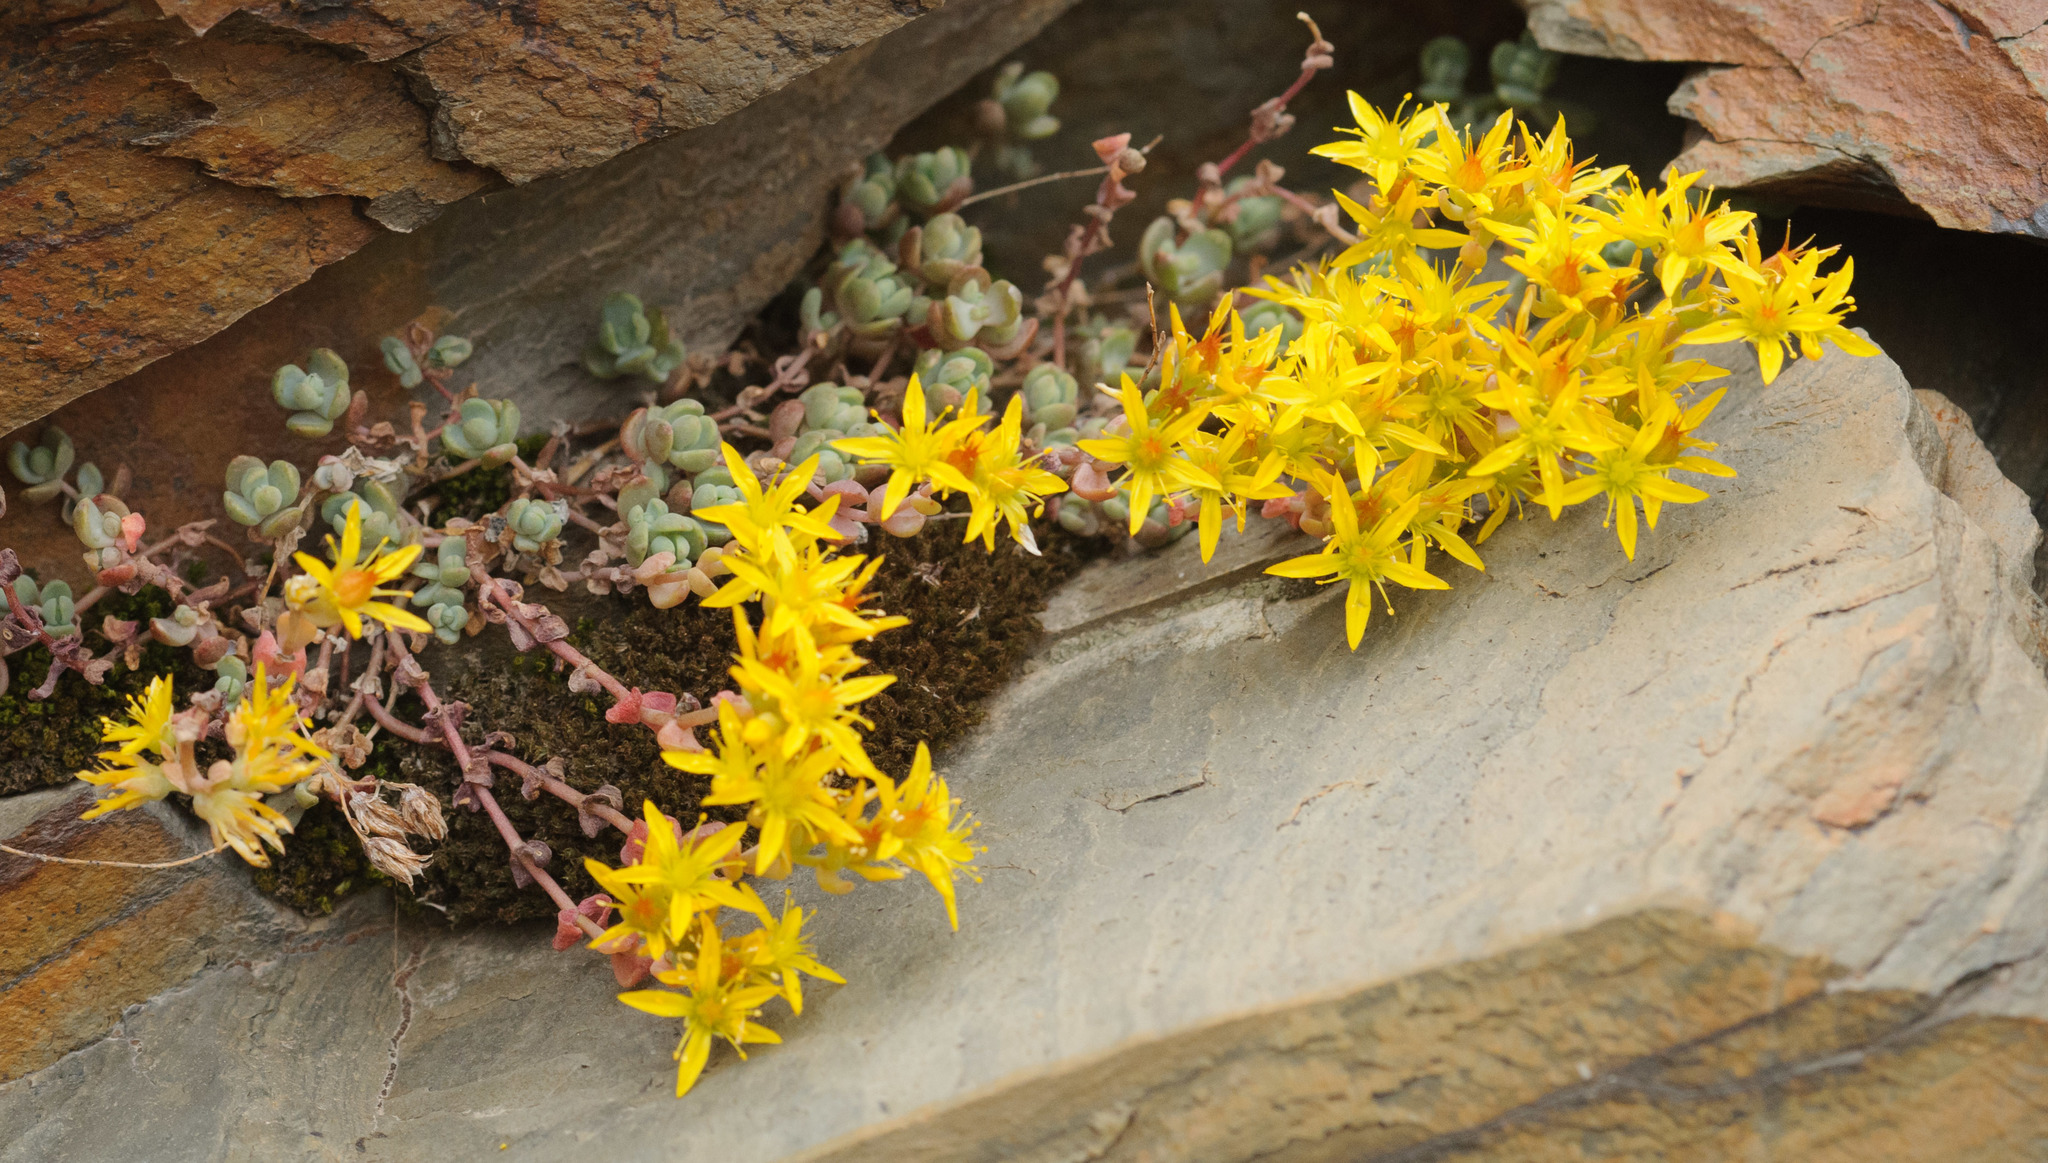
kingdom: Plantae
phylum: Tracheophyta
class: Magnoliopsida
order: Saxifragales
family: Crassulaceae
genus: Sedum
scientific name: Sedum debile
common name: Weak-stem stonecrop
